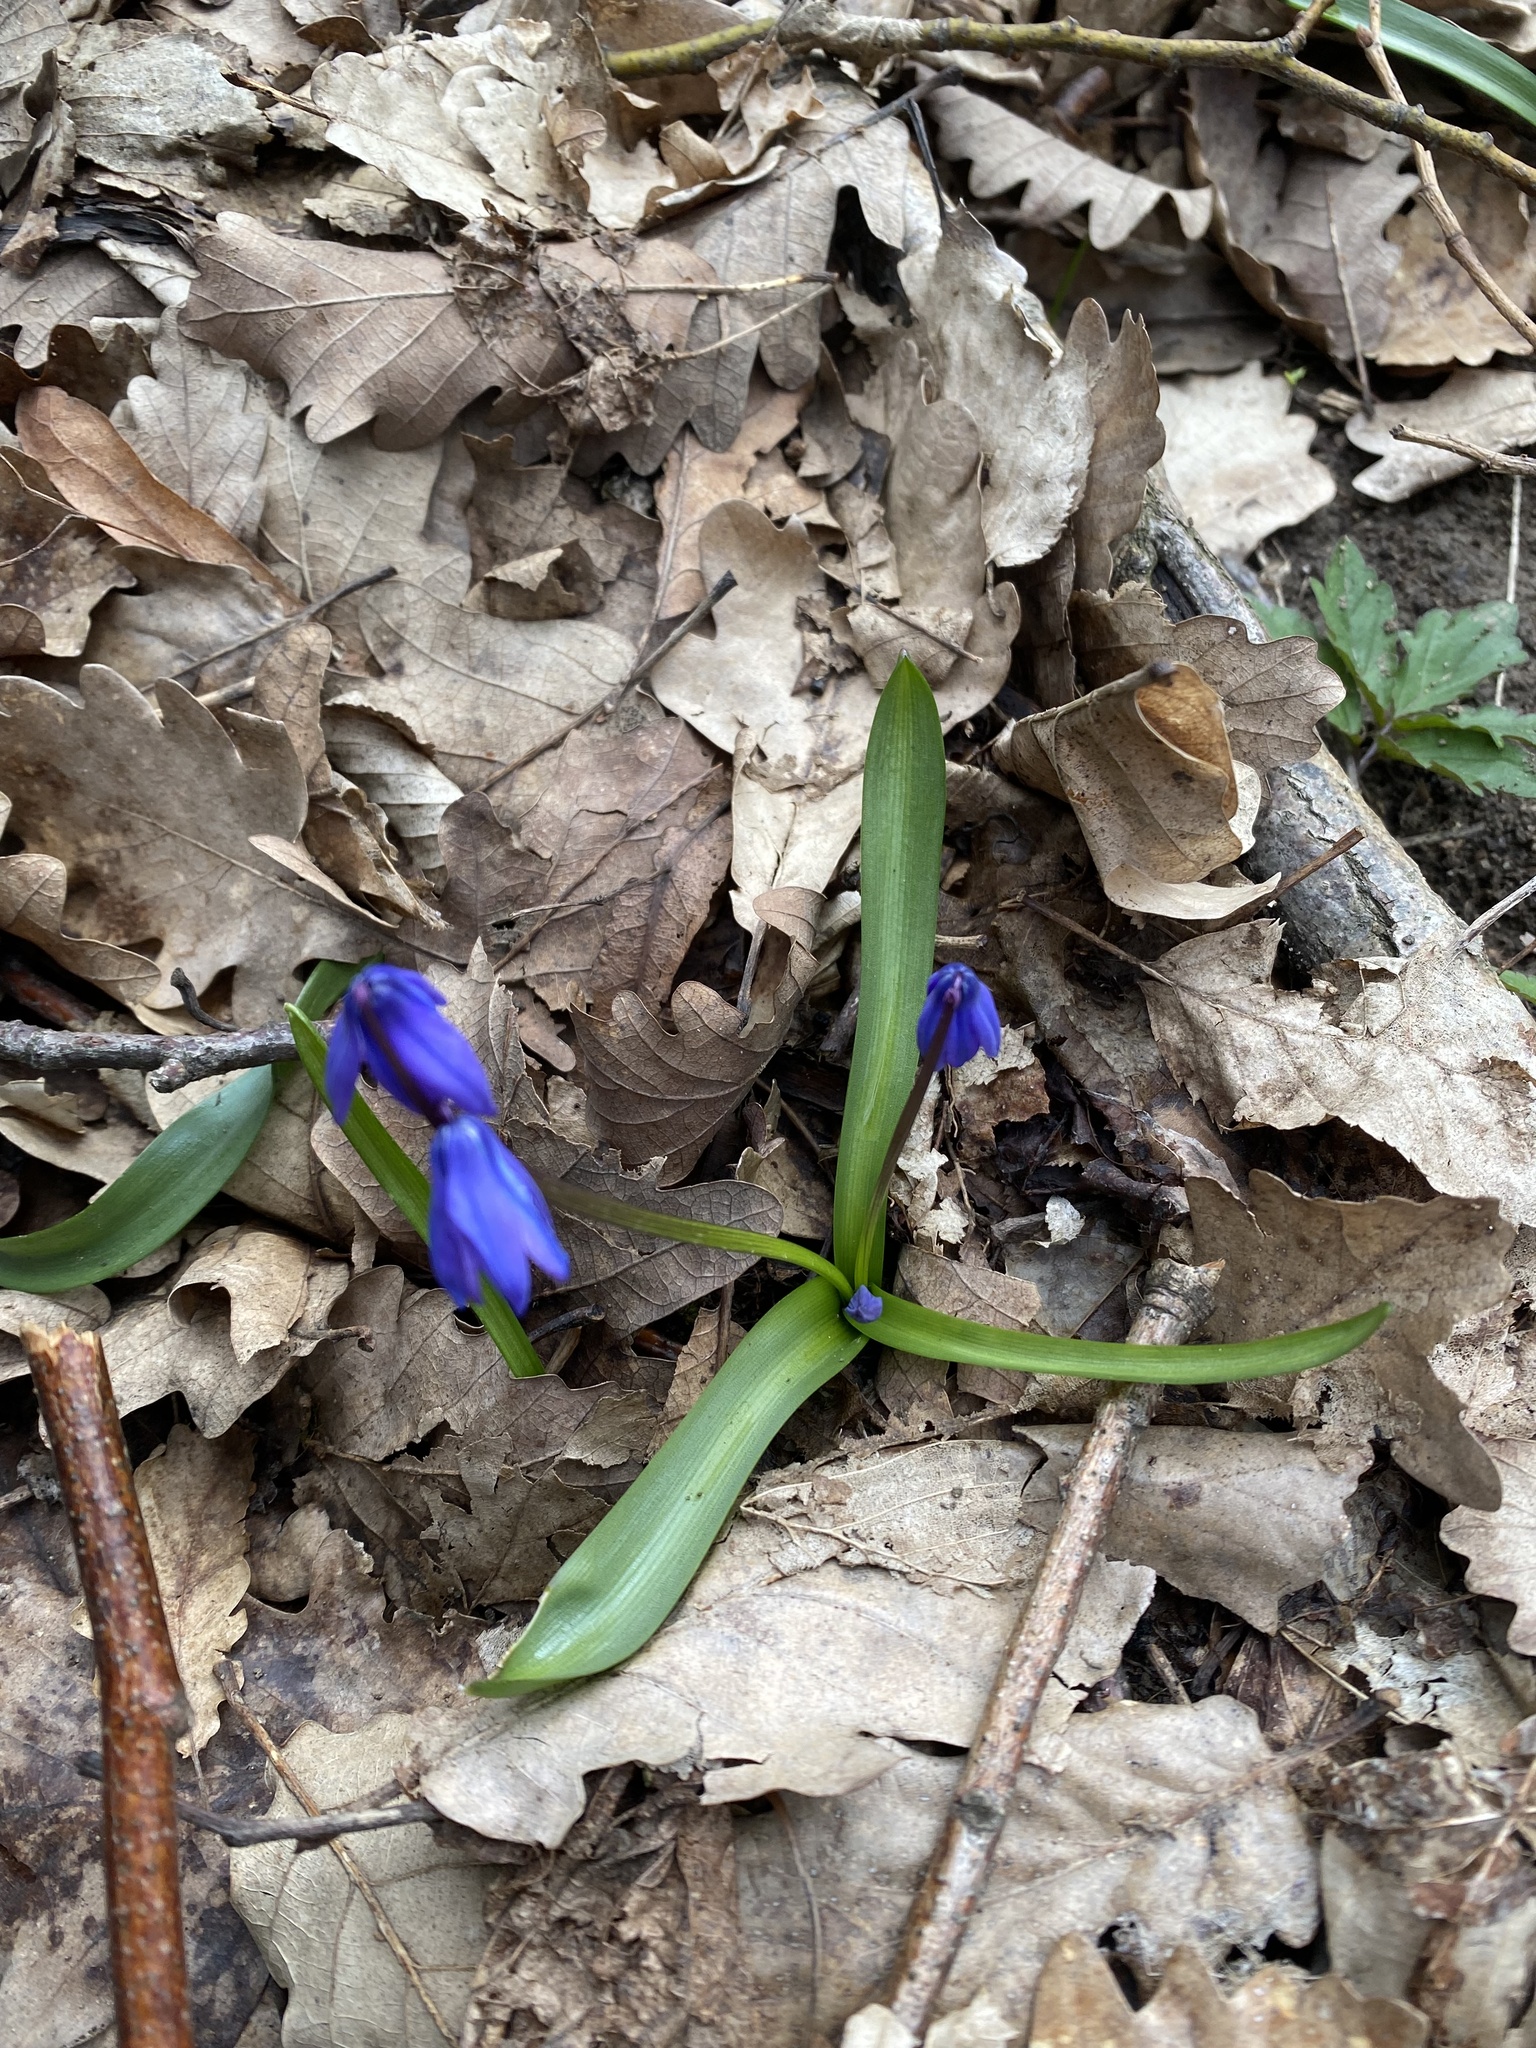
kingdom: Plantae
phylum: Tracheophyta
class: Liliopsida
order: Asparagales
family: Asparagaceae
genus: Scilla
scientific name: Scilla siberica
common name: Siberian squill
